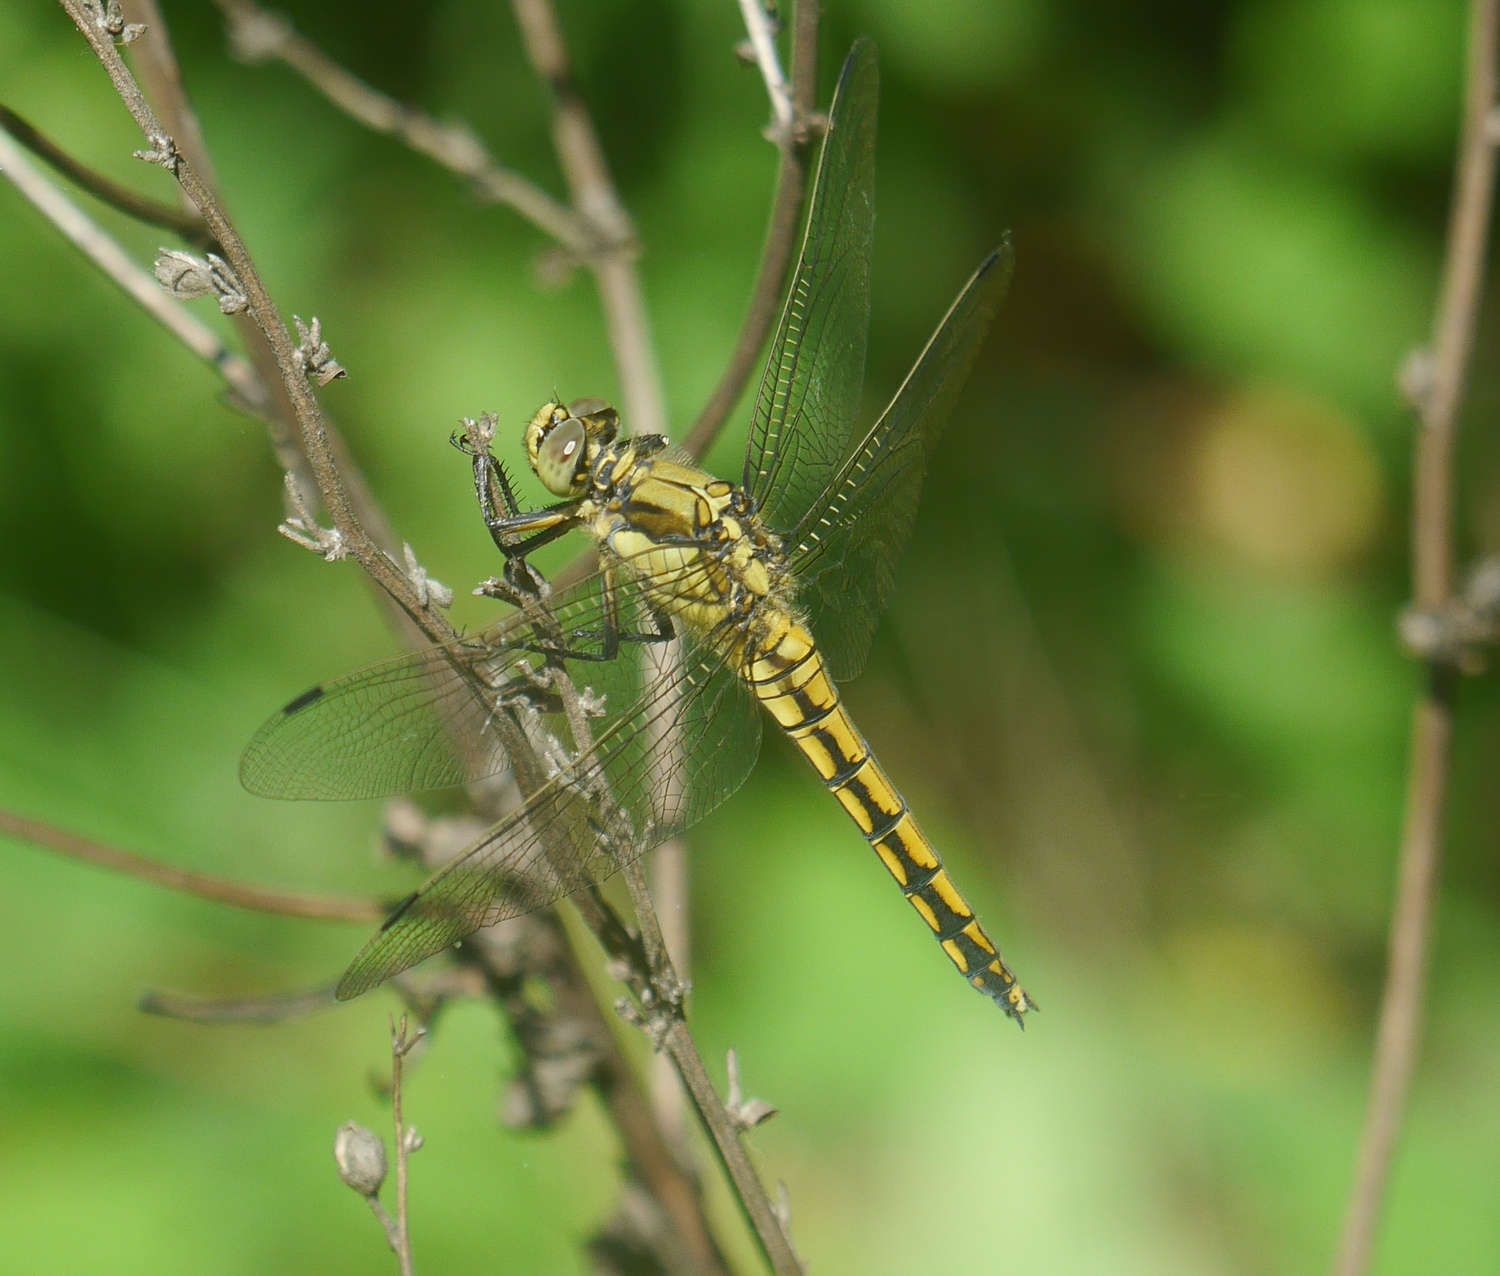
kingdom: Animalia
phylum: Arthropoda
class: Insecta
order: Odonata
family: Libellulidae
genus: Orthetrum
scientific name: Orthetrum cancellatum
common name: Black-tailed skimmer
